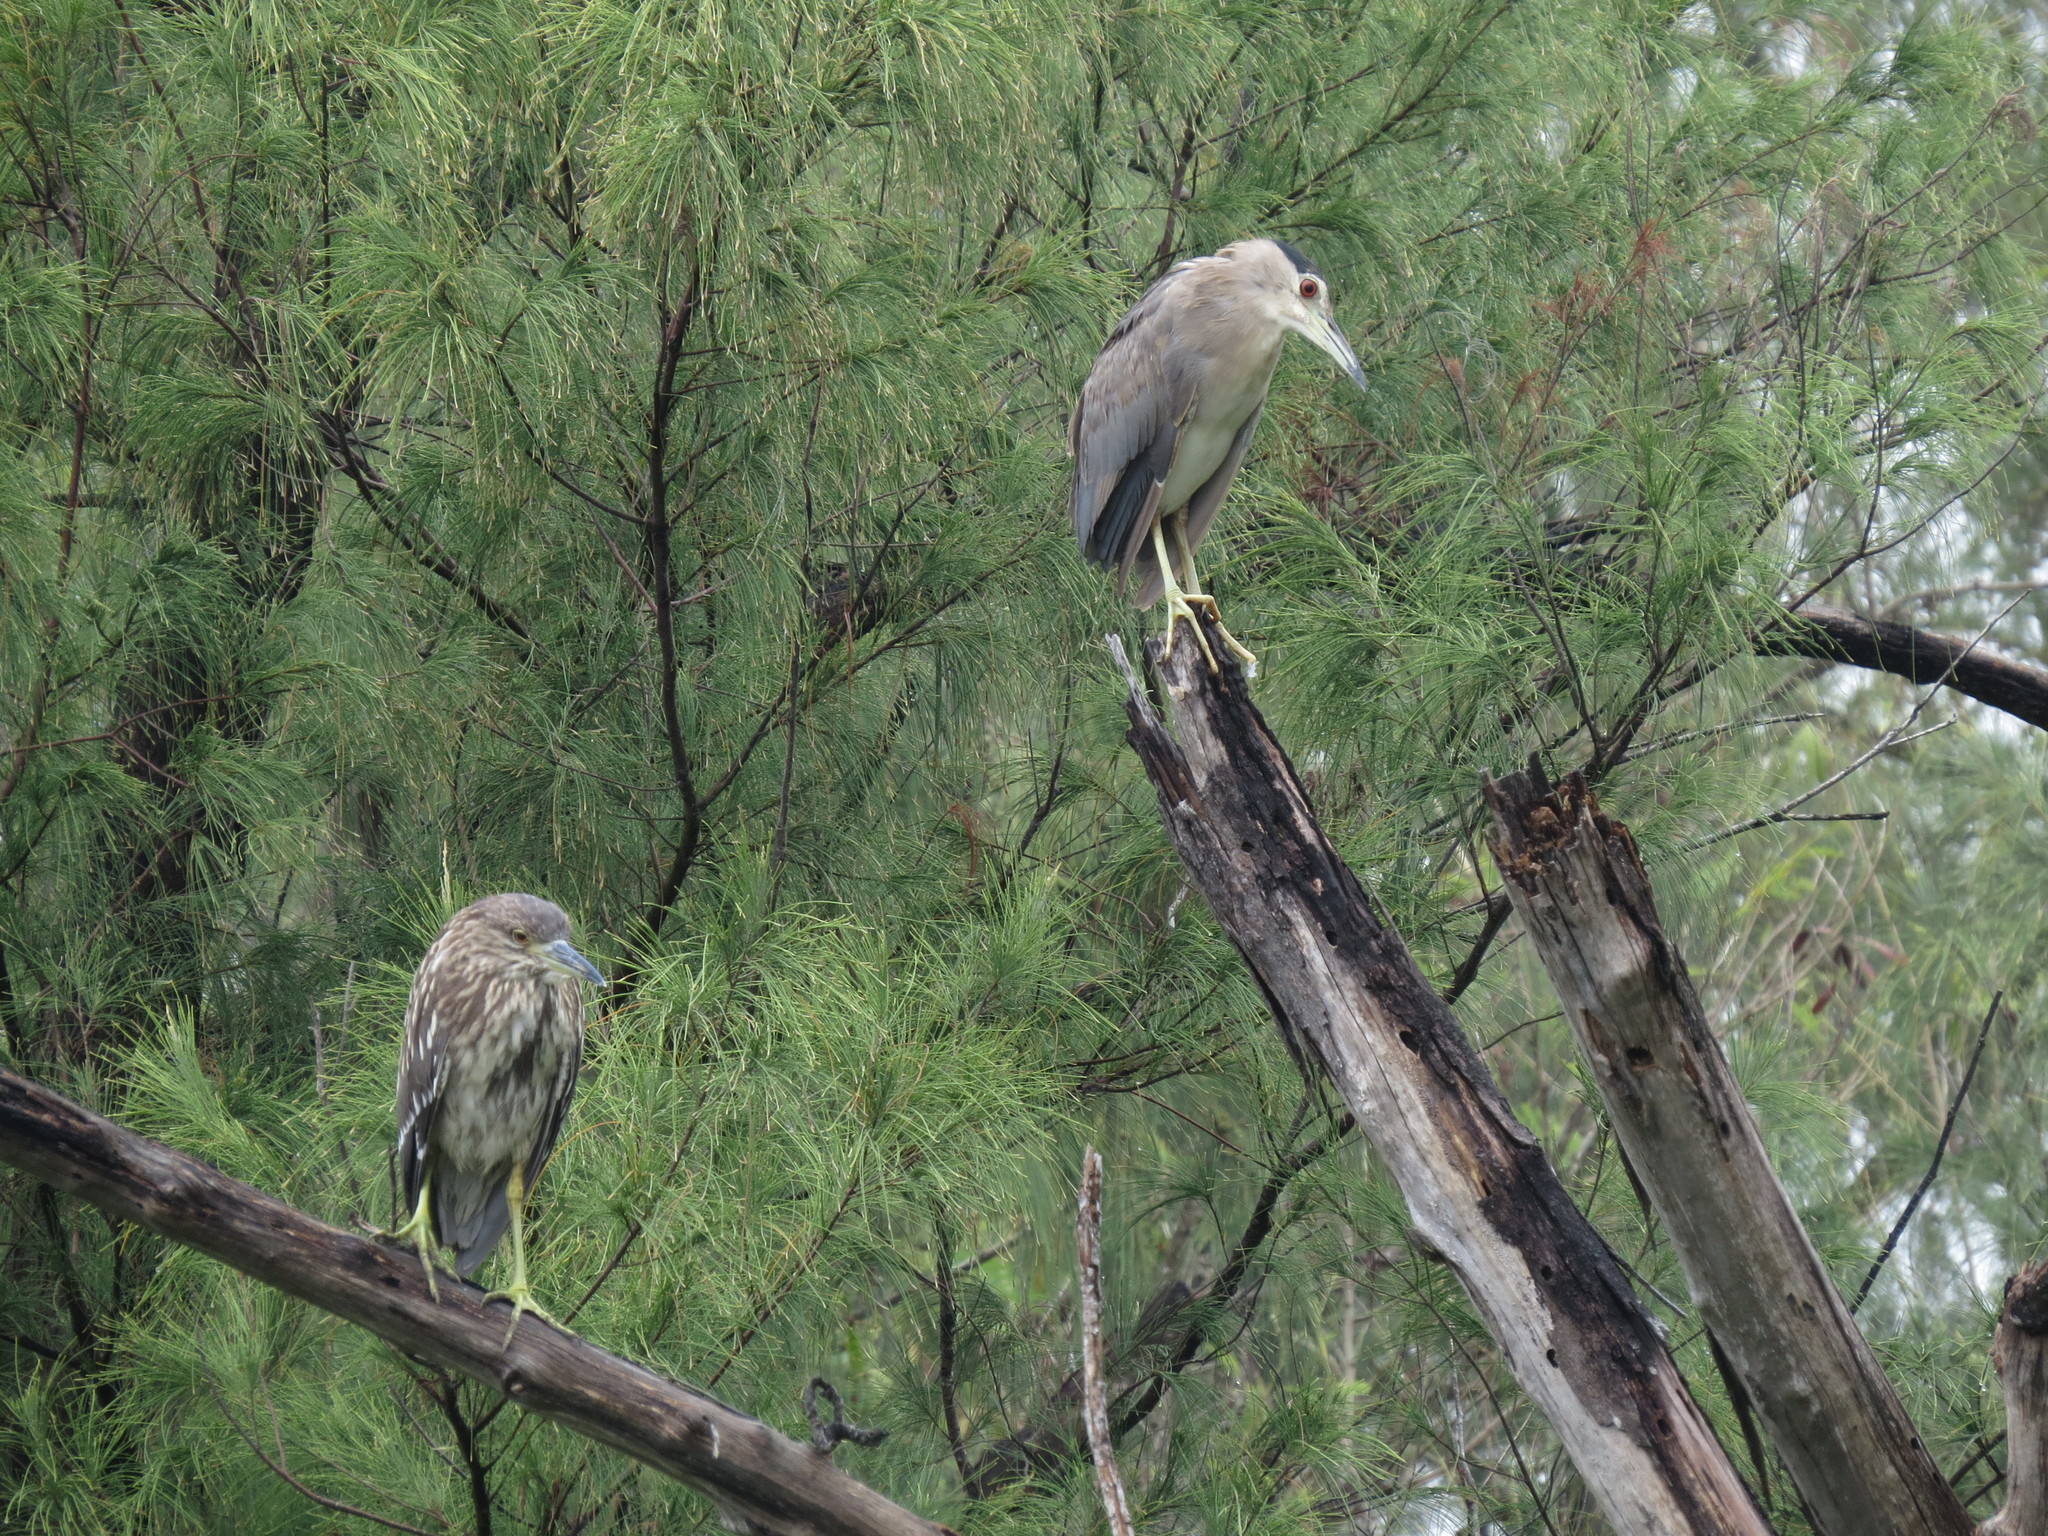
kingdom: Animalia
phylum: Chordata
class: Aves
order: Pelecaniformes
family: Ardeidae
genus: Nycticorax
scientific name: Nycticorax nycticorax
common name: Black-crowned night heron
